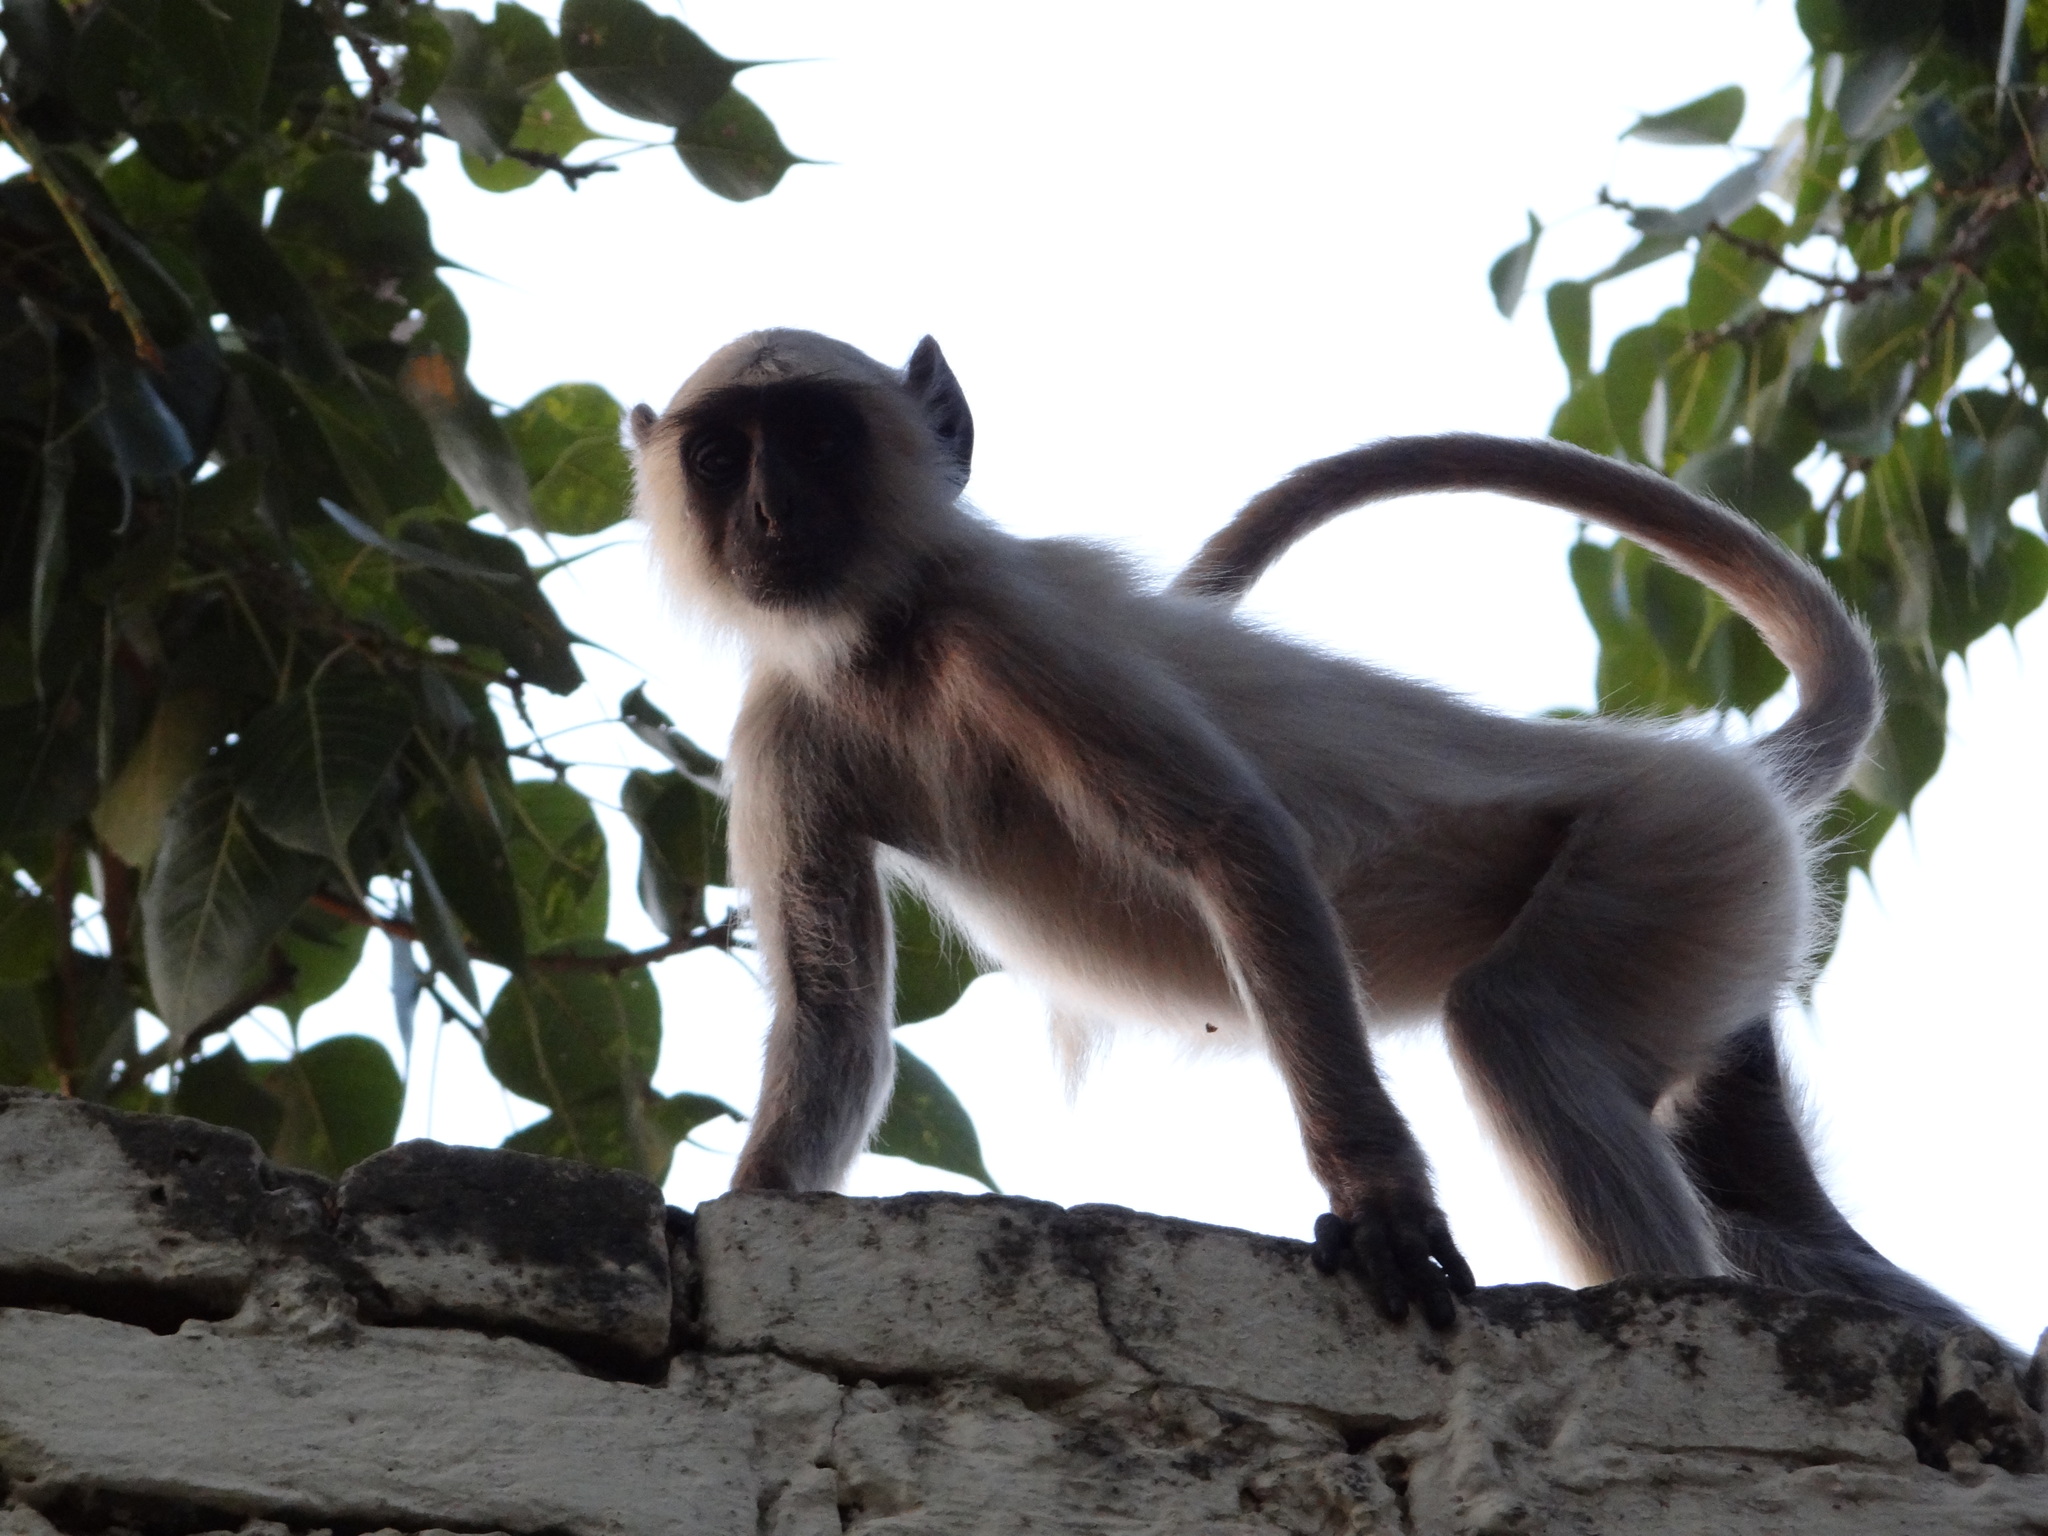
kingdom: Animalia
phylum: Chordata
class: Mammalia
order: Primates
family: Cercopithecidae
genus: Semnopithecus
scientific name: Semnopithecus entellus
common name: Northern plains gray langur
